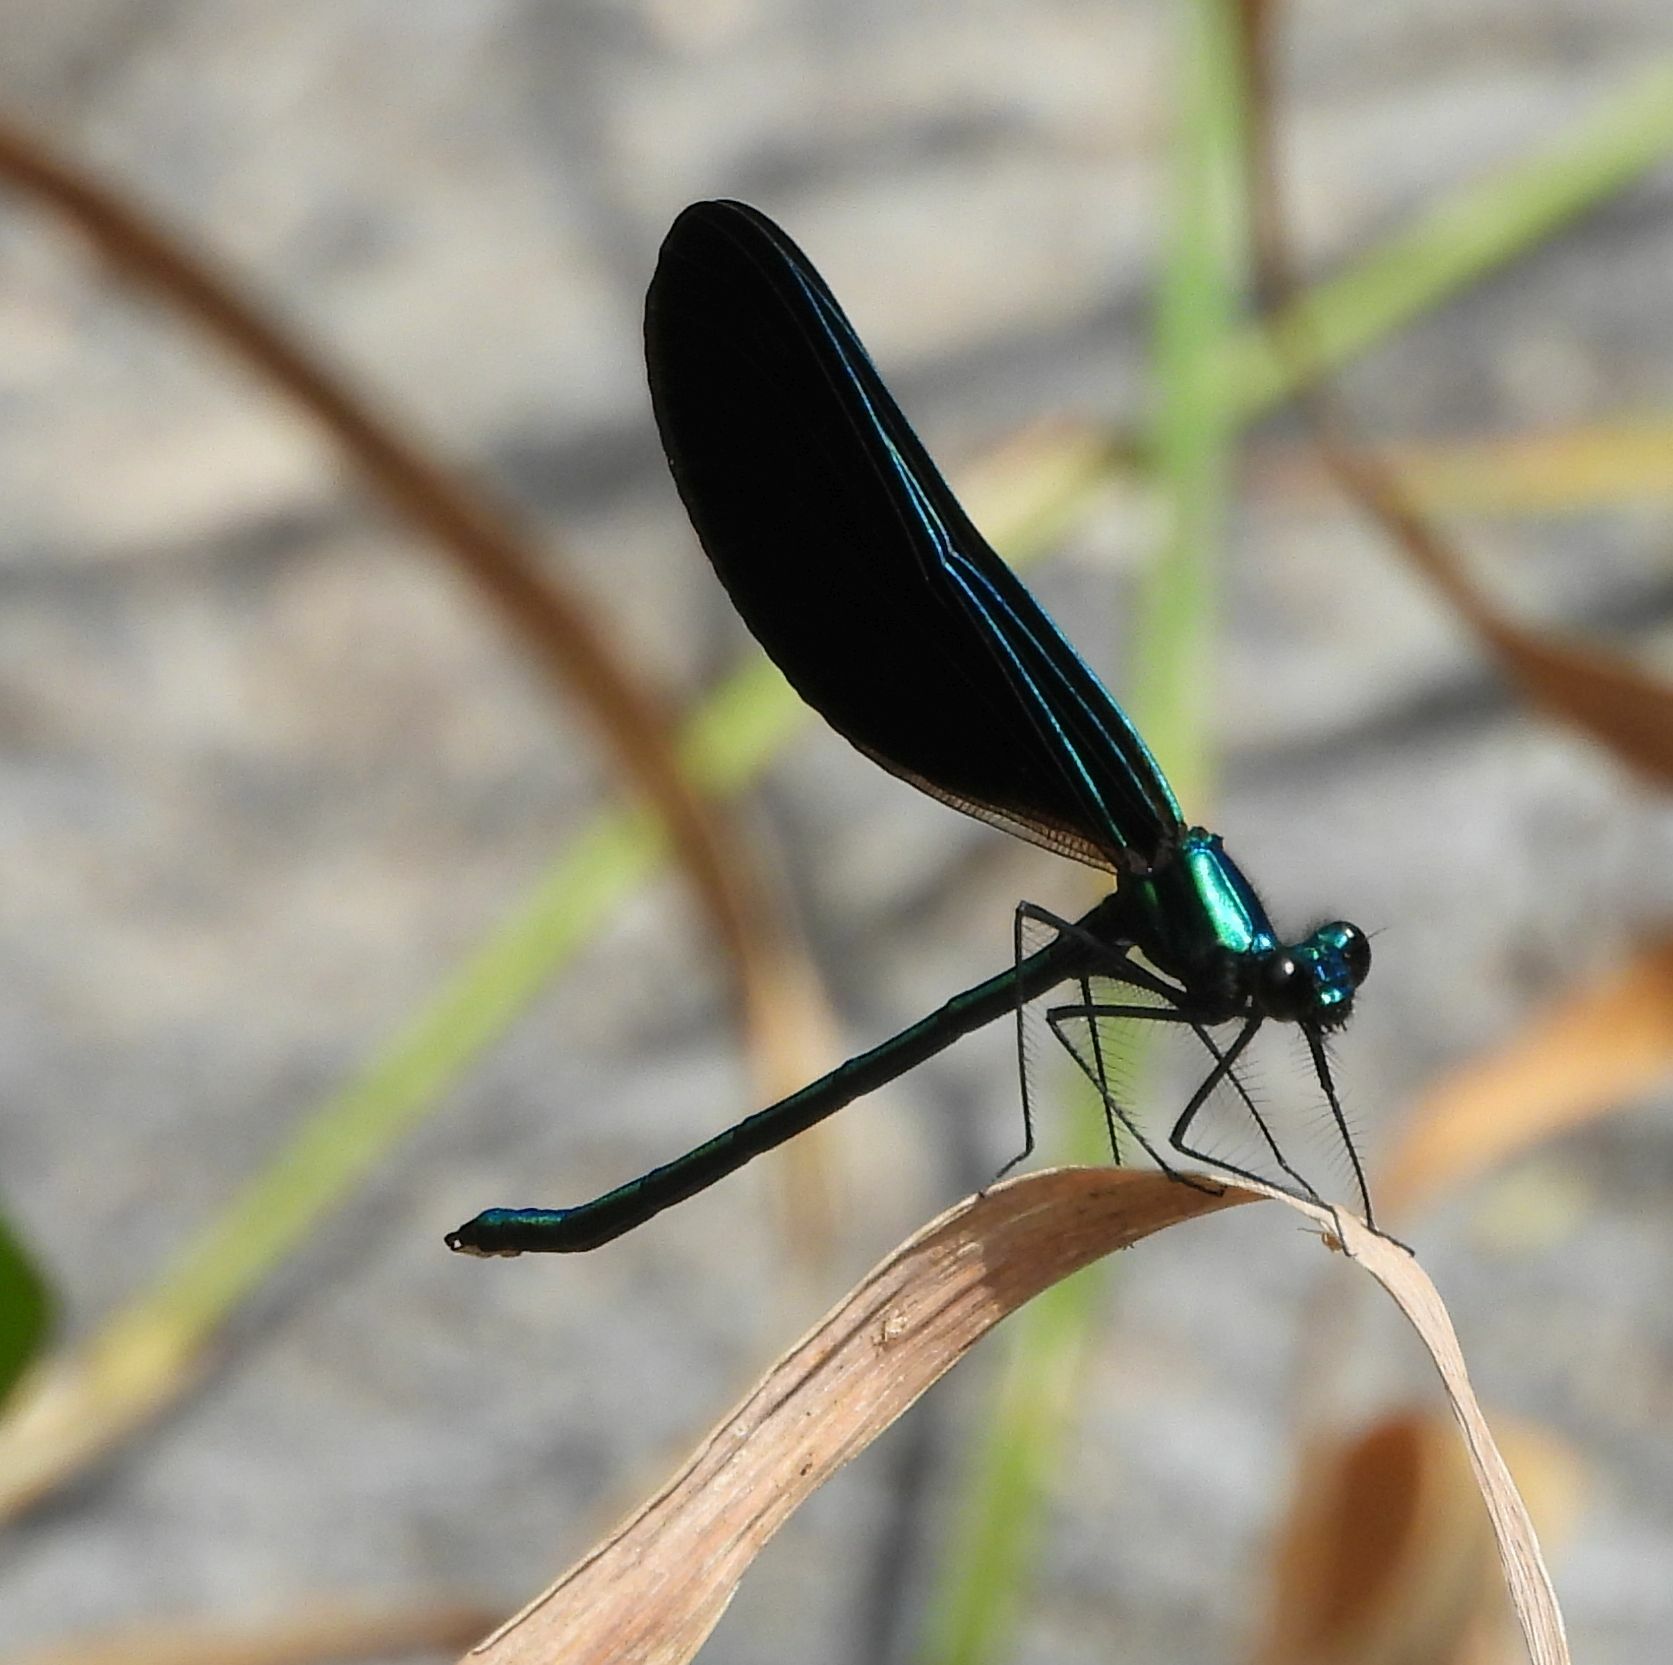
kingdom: Animalia
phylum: Arthropoda
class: Insecta
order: Odonata
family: Calopterygidae
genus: Calopteryx
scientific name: Calopteryx maculata
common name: Ebony jewelwing
